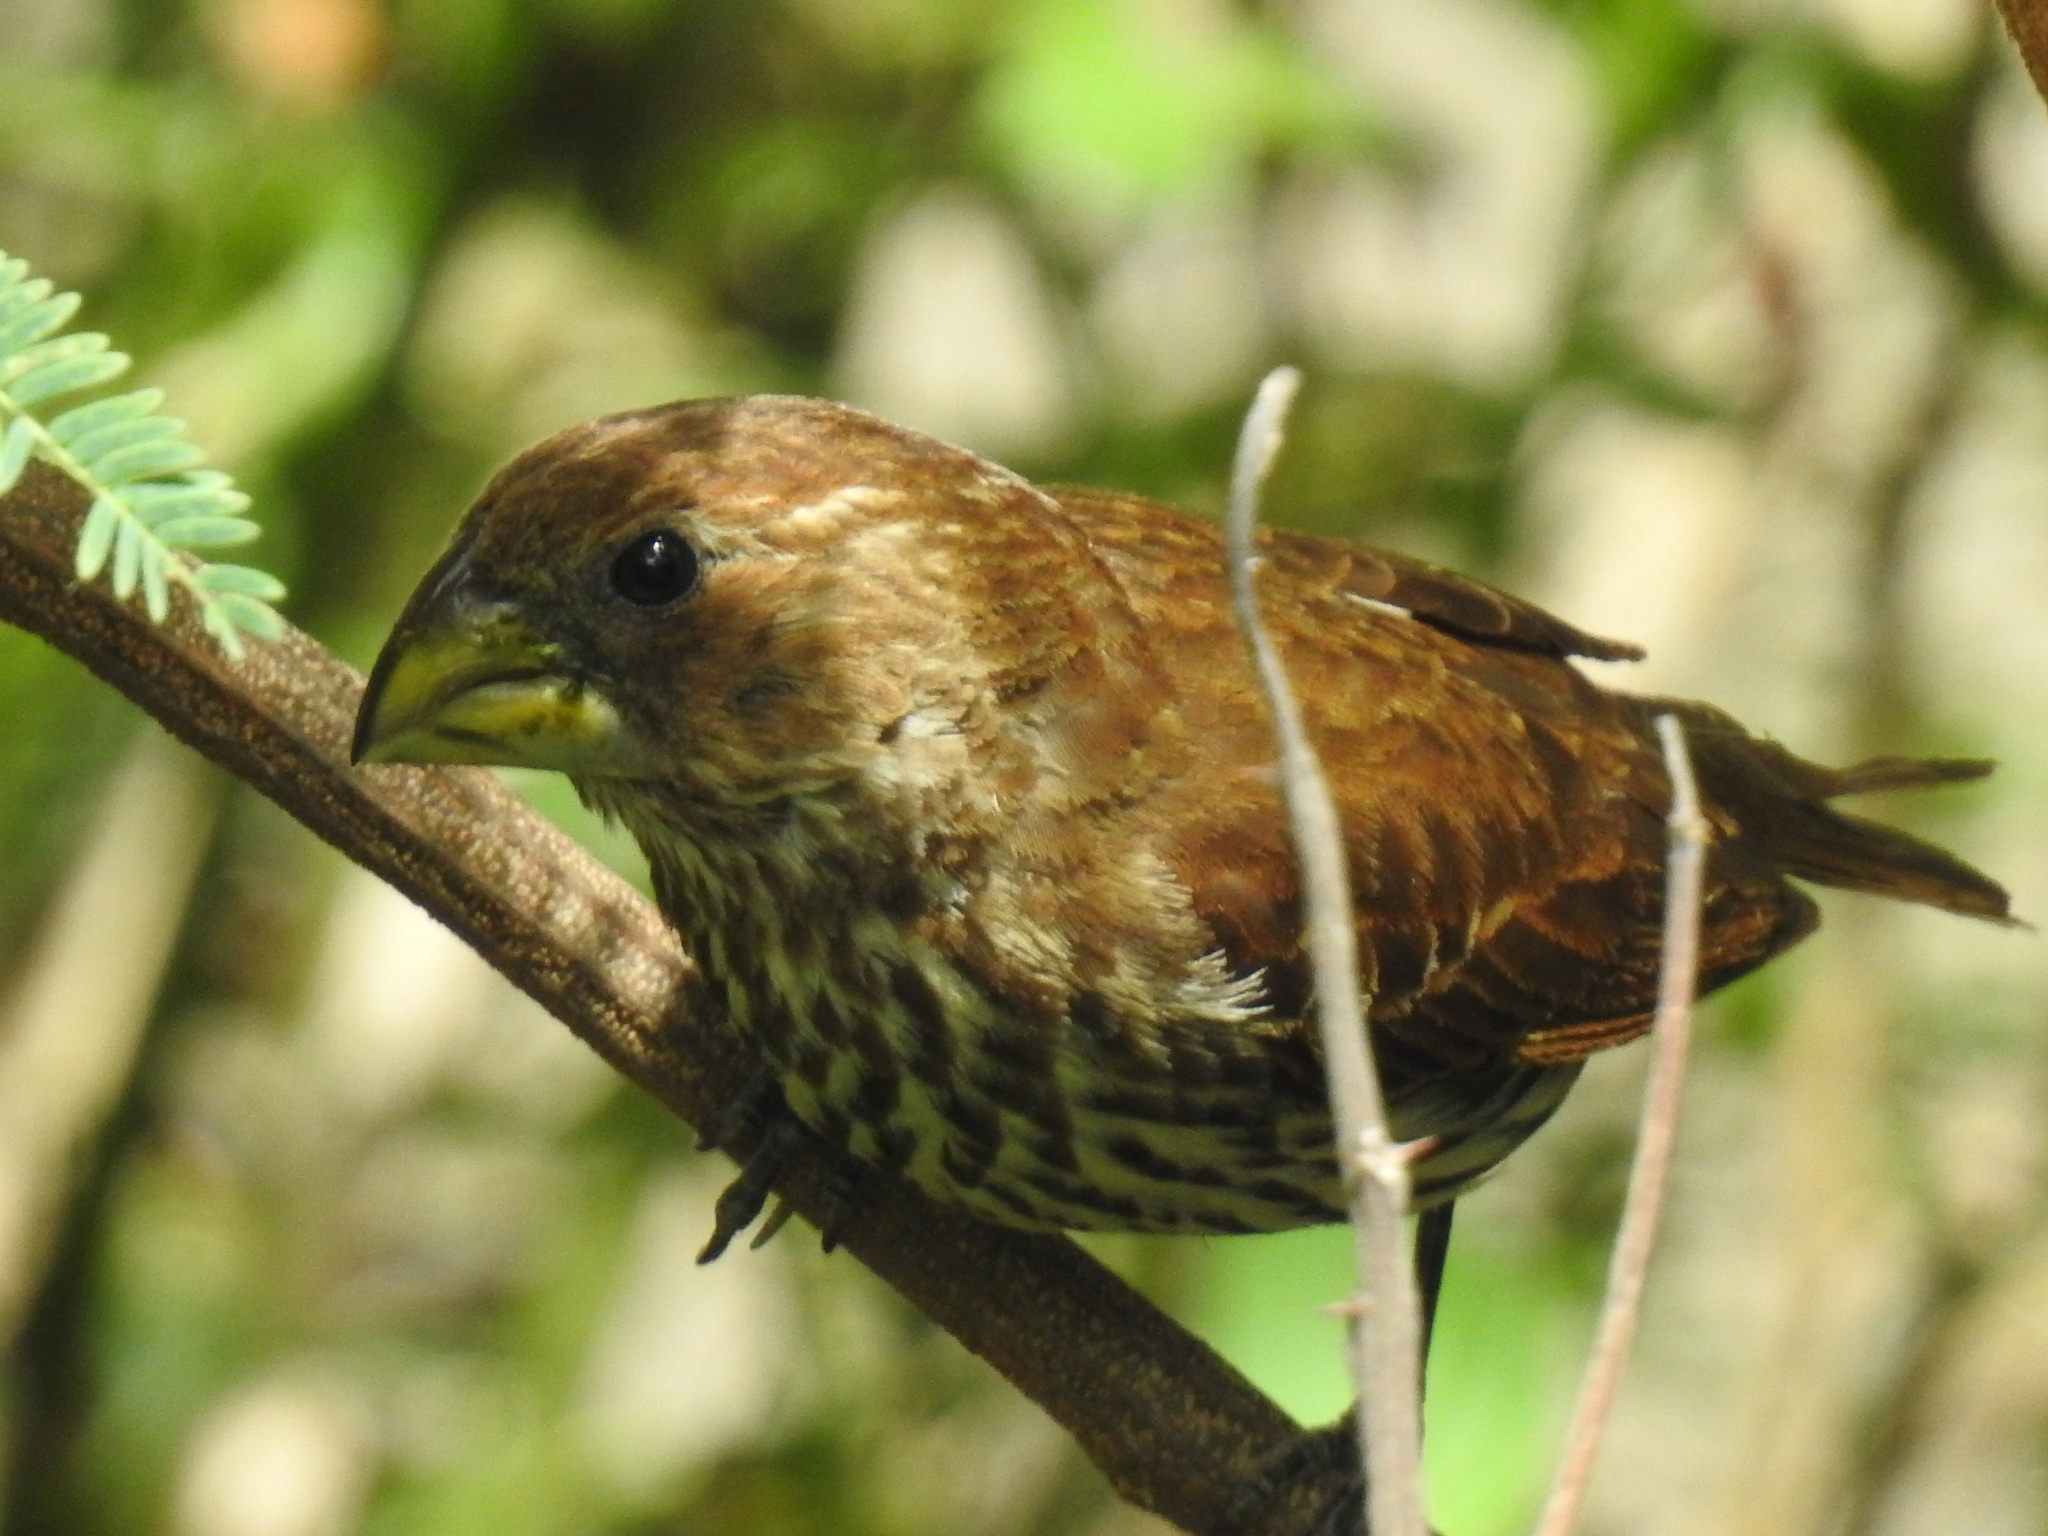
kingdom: Animalia
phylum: Chordata
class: Aves
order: Passeriformes
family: Ploceidae
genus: Amblyospiza
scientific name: Amblyospiza albifrons
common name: Thick-billed weaver
